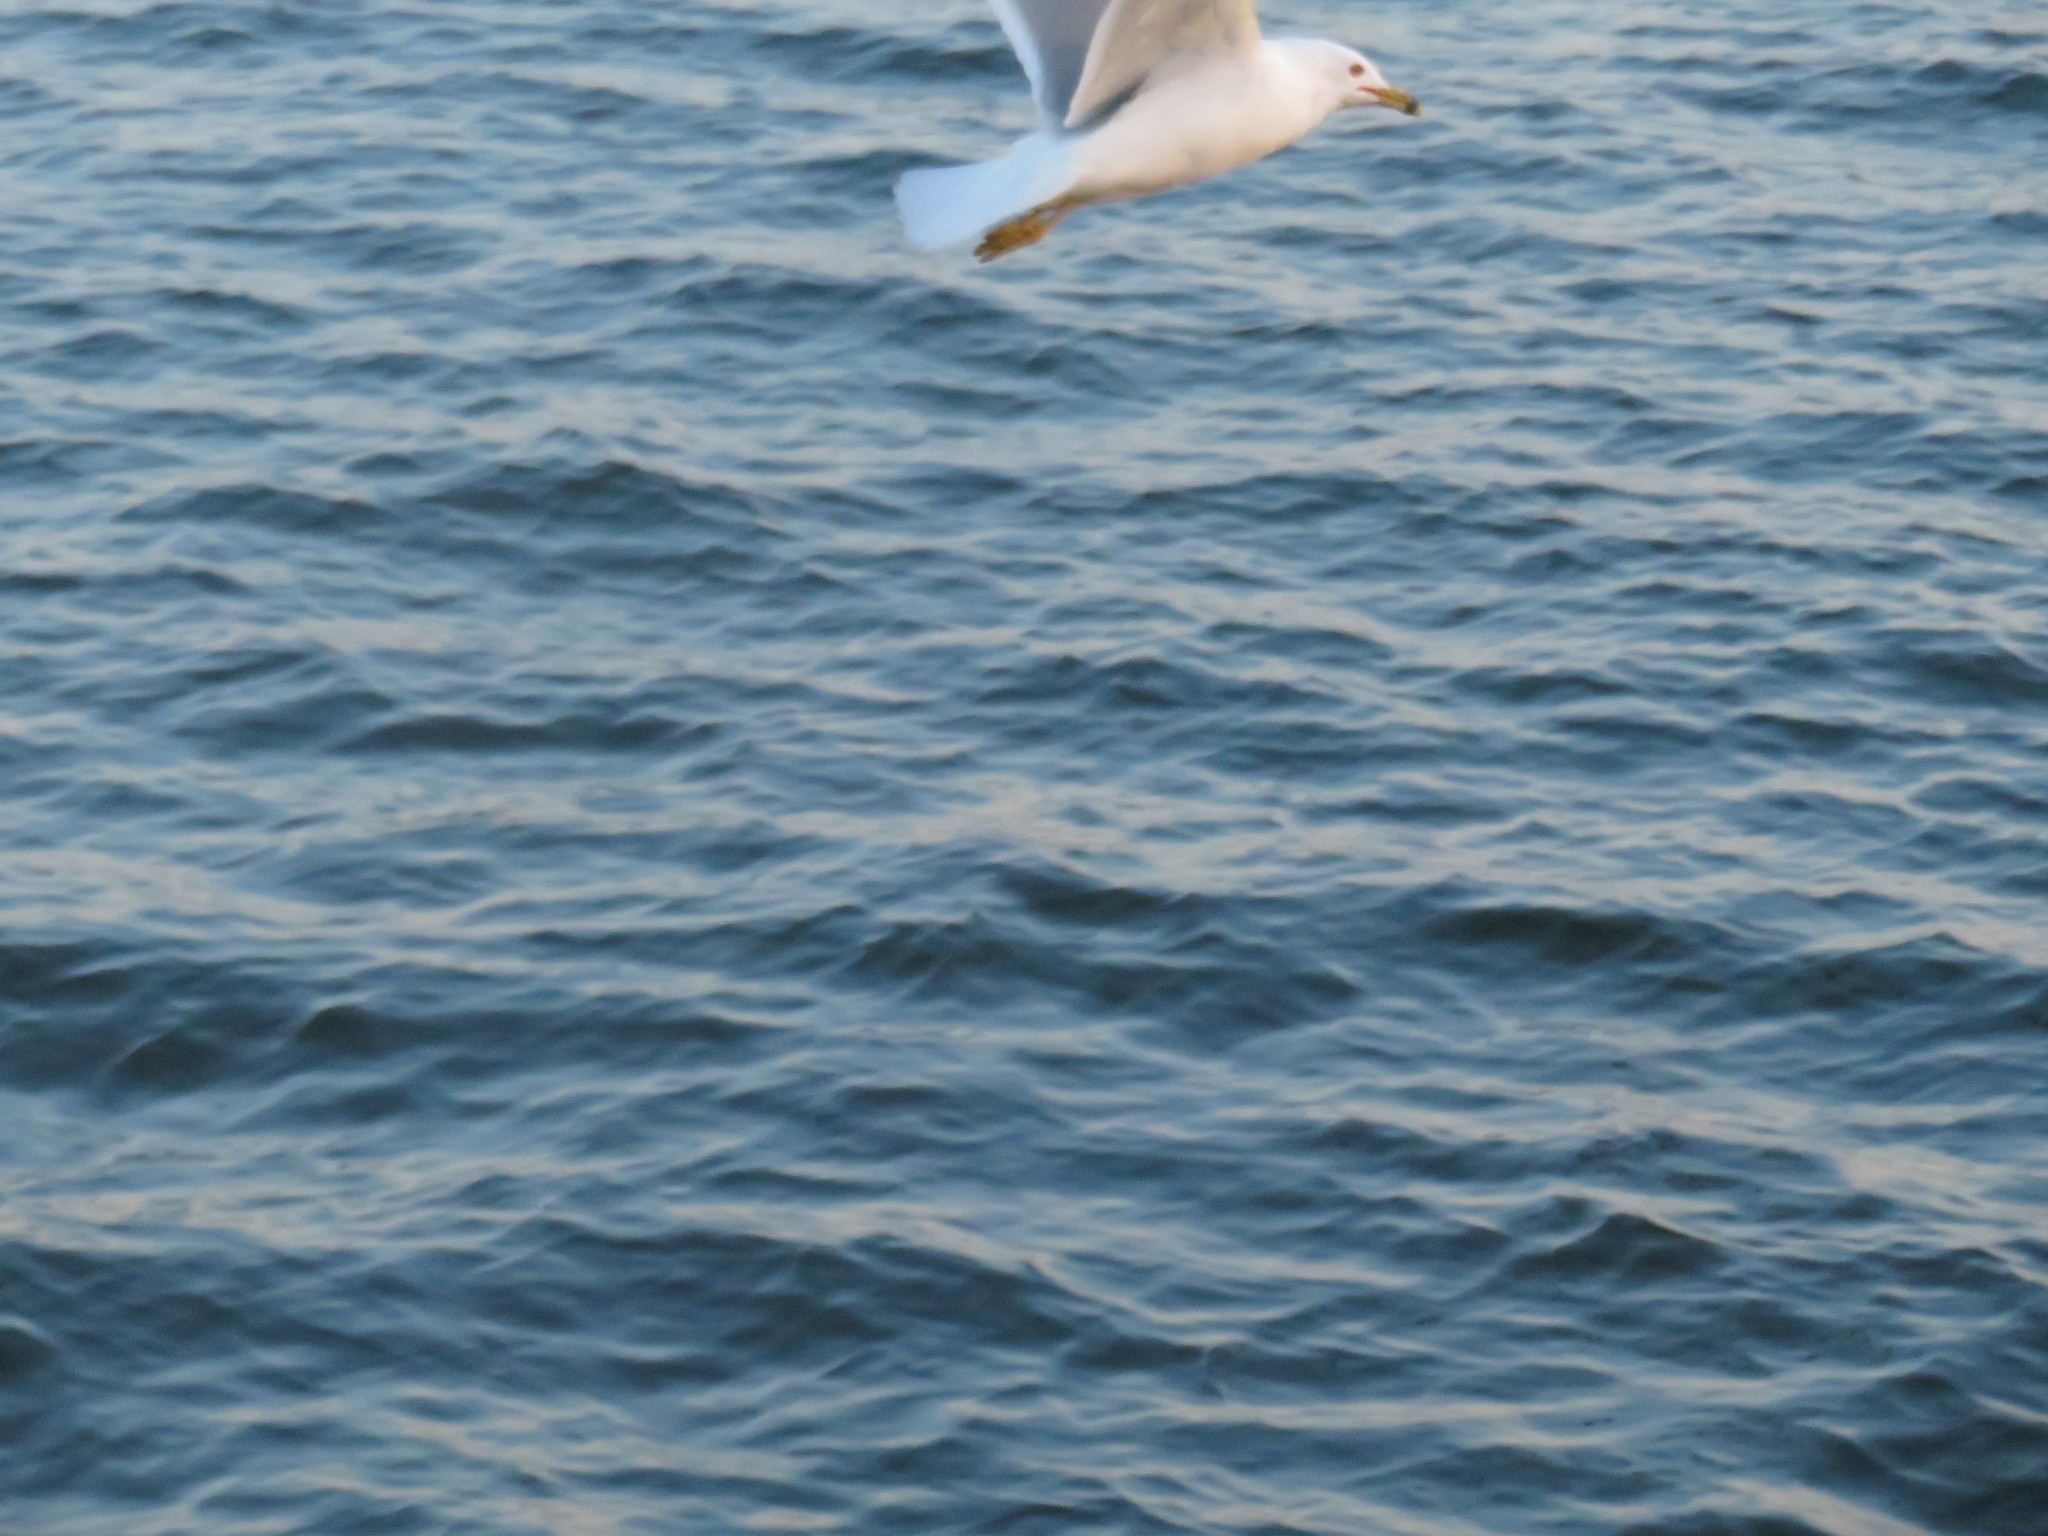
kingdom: Animalia
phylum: Chordata
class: Aves
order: Charadriiformes
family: Laridae
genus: Larus
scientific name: Larus delawarensis
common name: Ring-billed gull
